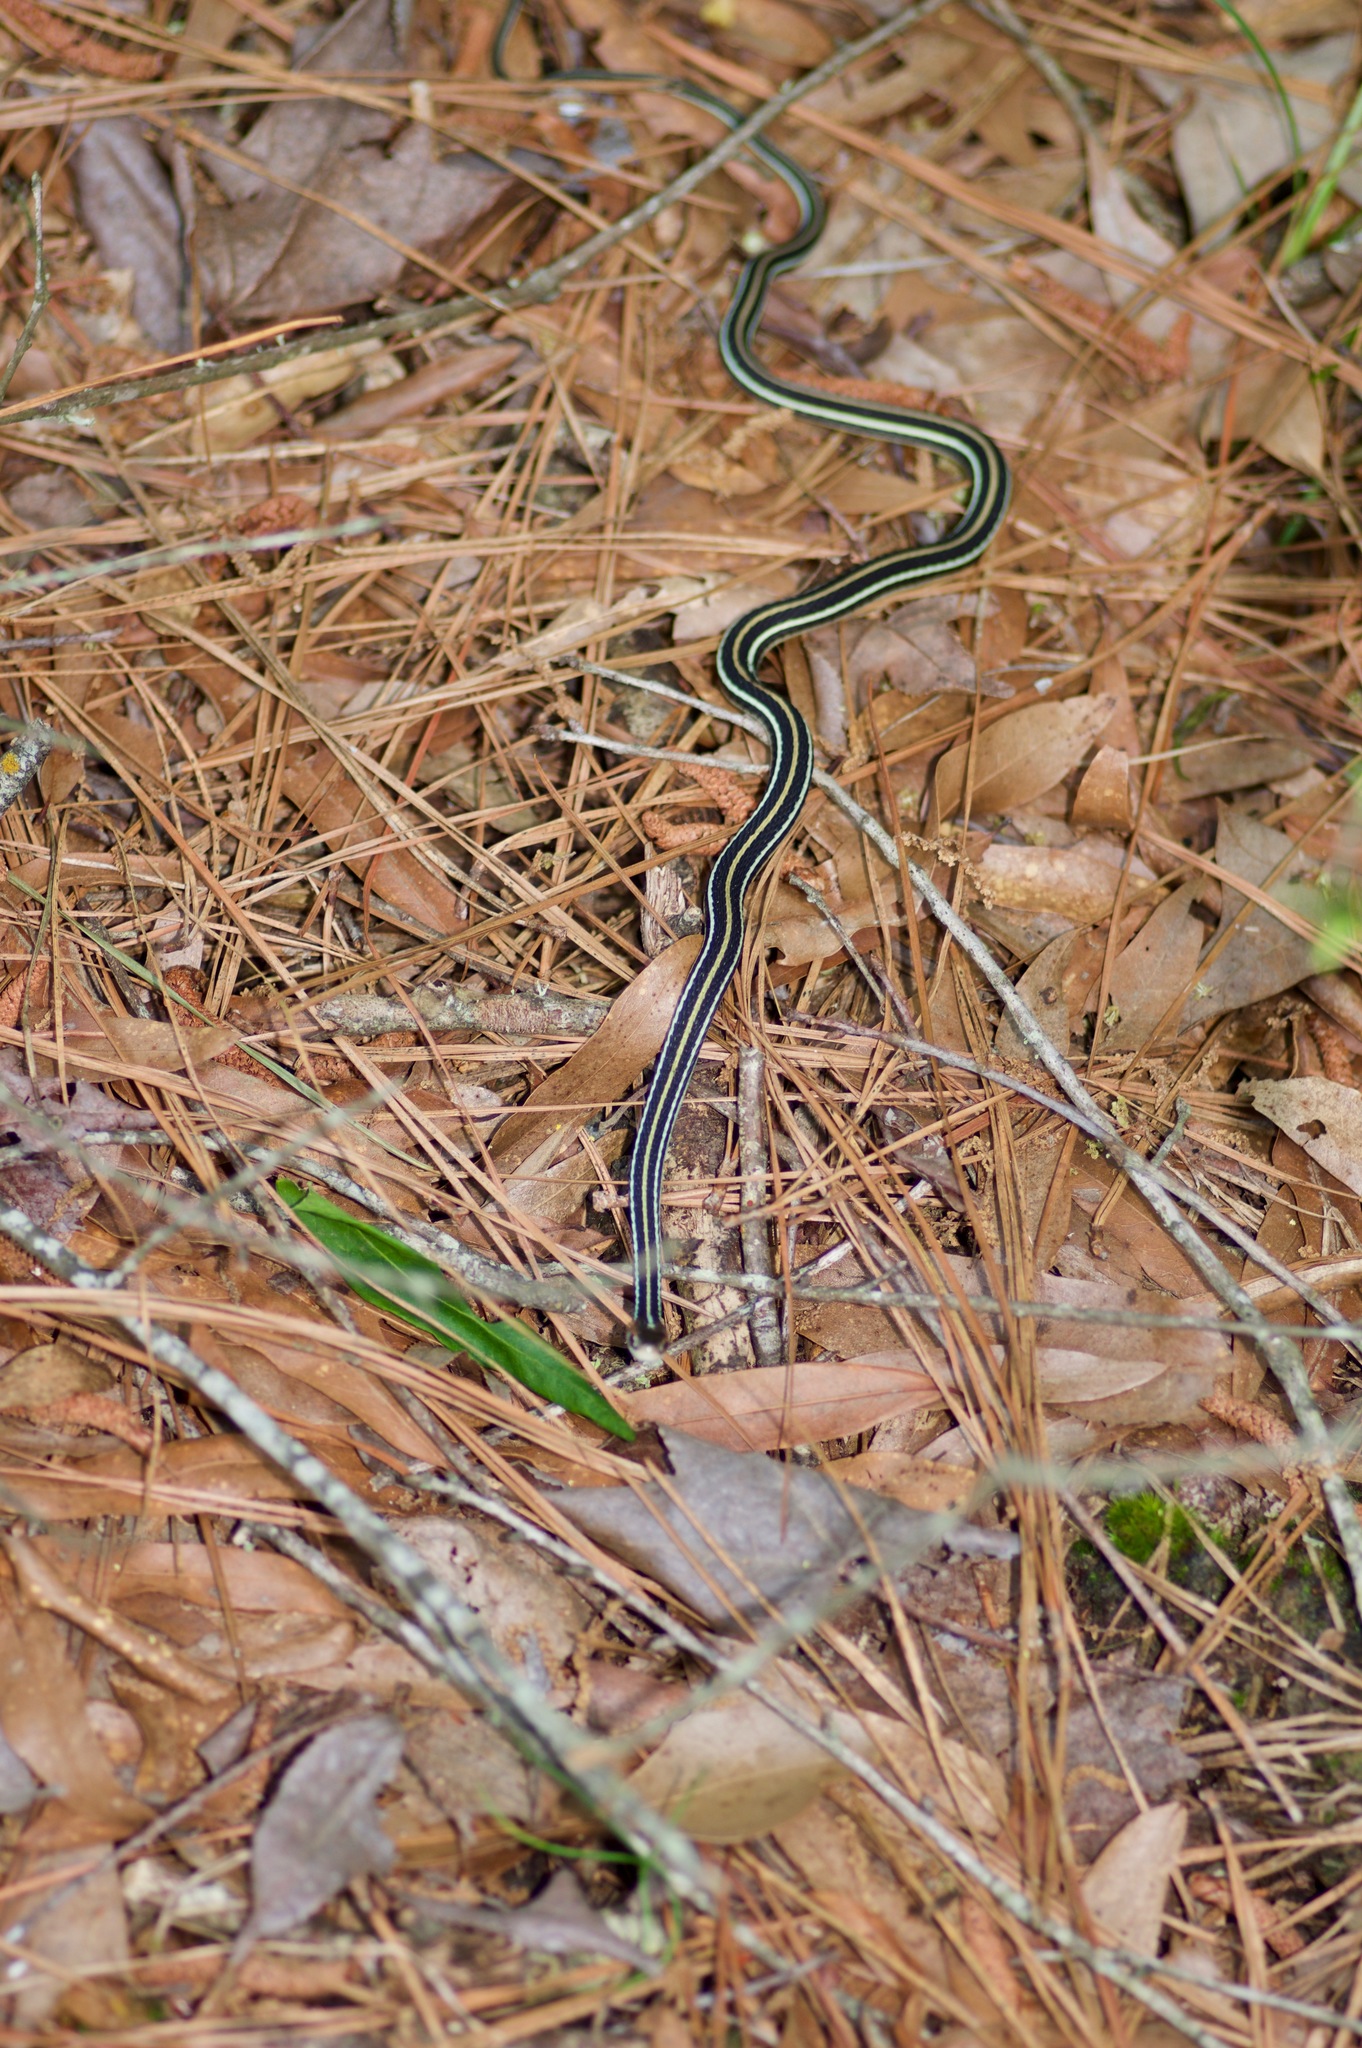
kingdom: Animalia
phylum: Chordata
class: Squamata
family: Colubridae
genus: Thamnophis
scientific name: Thamnophis proximus
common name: Western ribbon snake
